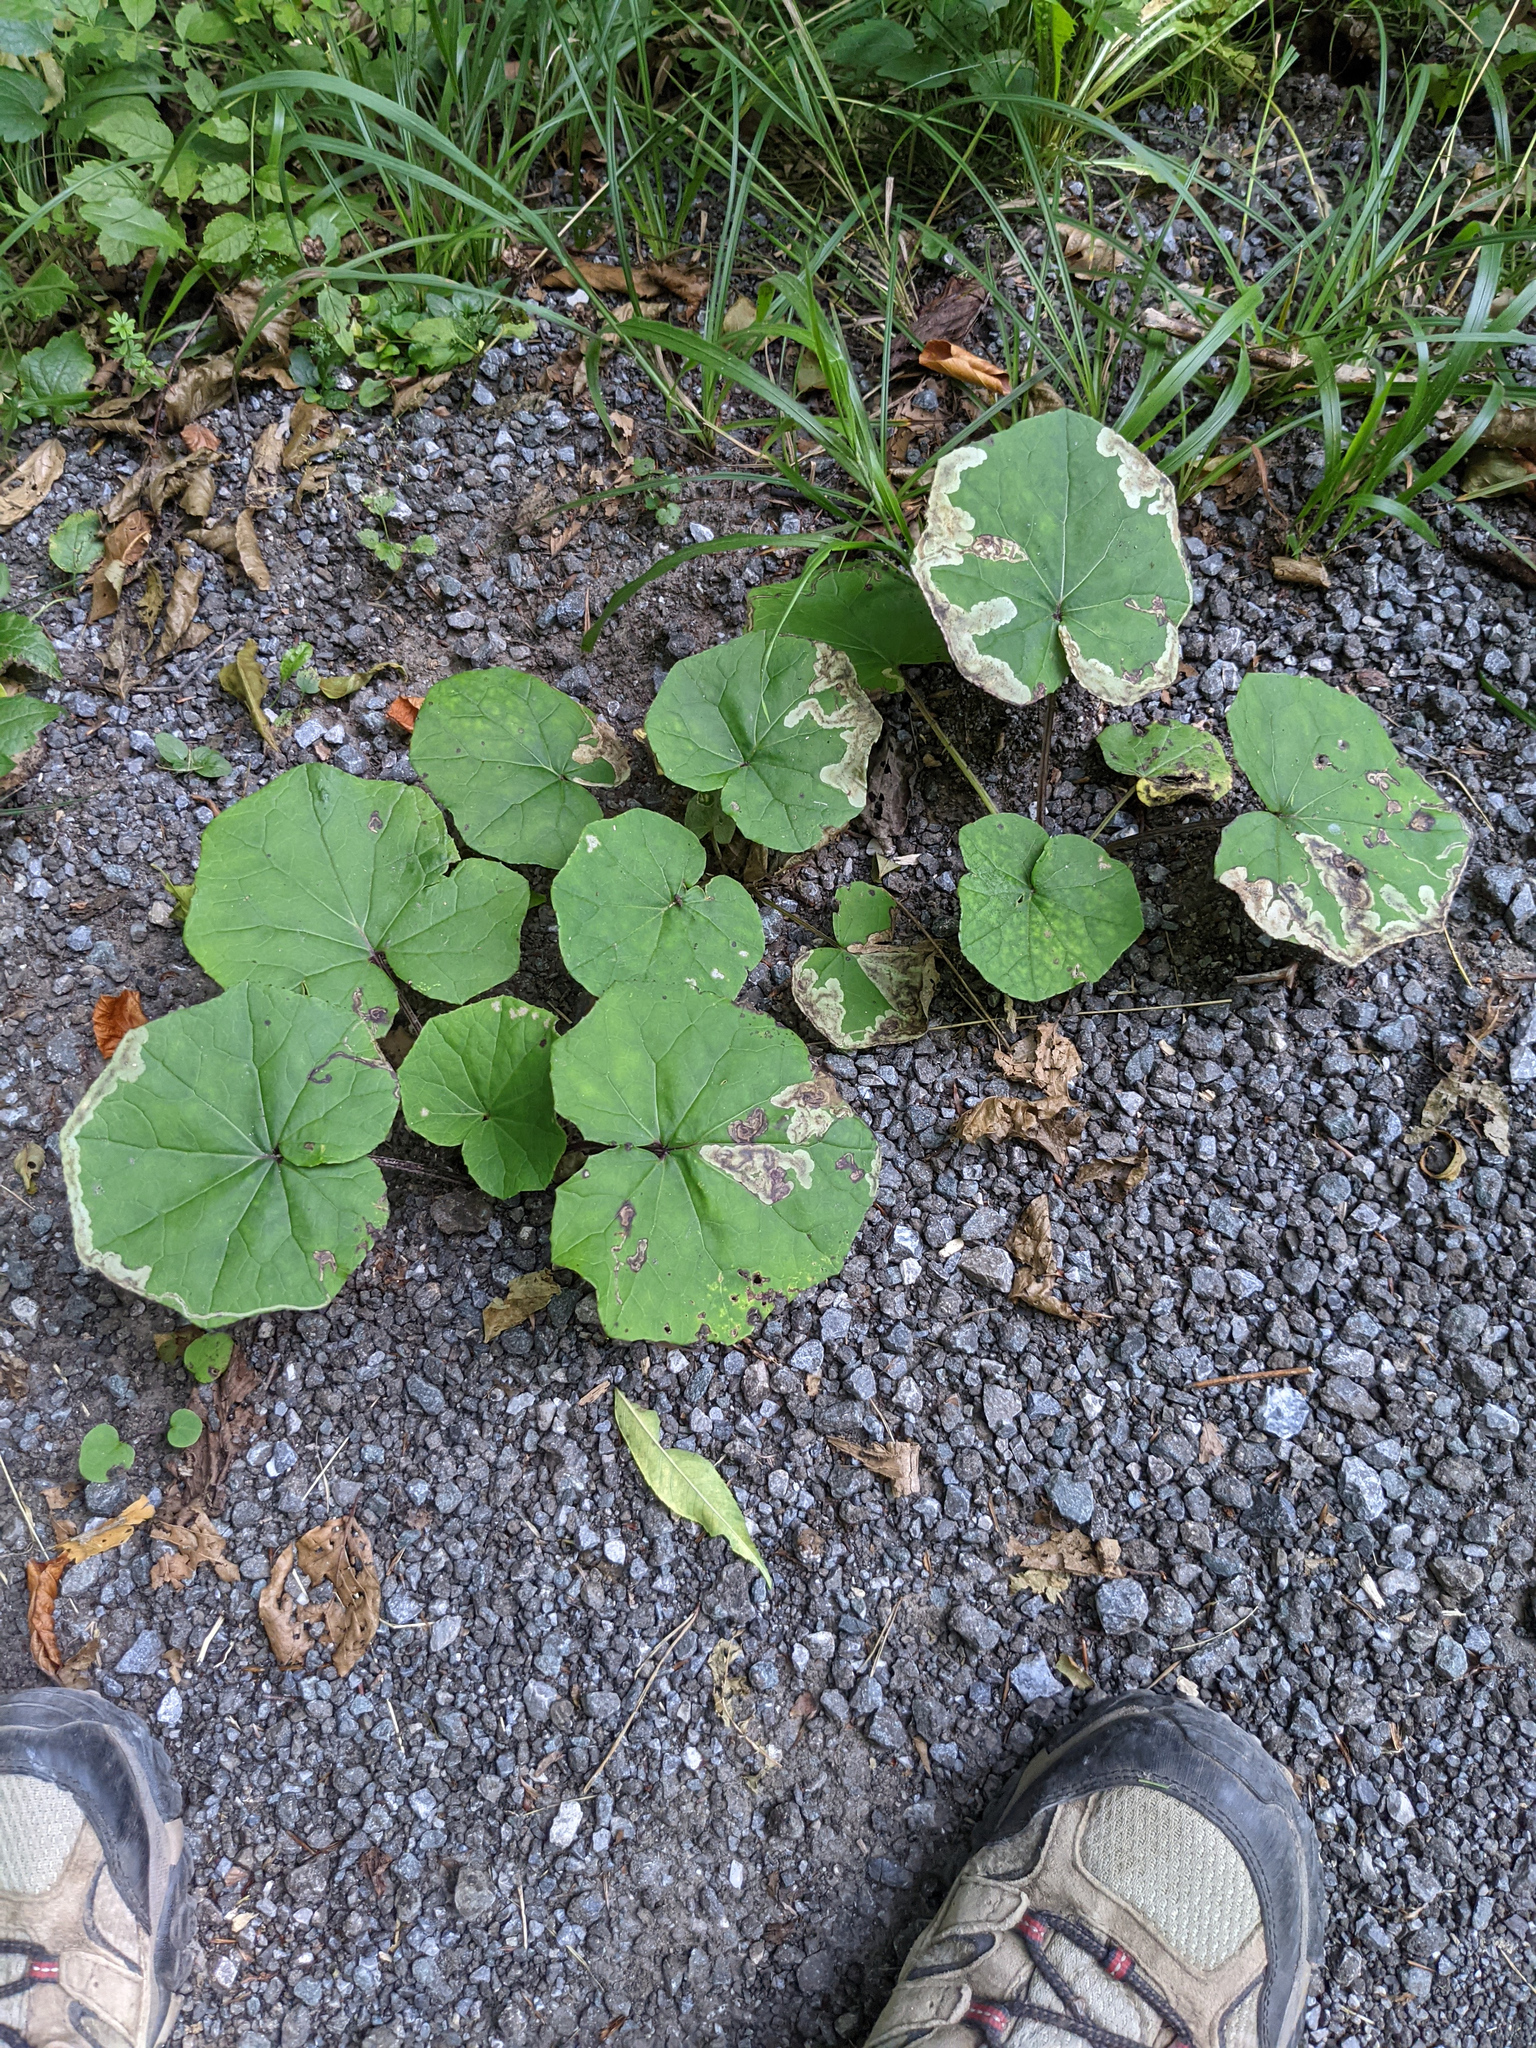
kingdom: Plantae
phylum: Tracheophyta
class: Magnoliopsida
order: Asterales
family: Asteraceae
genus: Tussilago
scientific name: Tussilago farfara
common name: Coltsfoot
